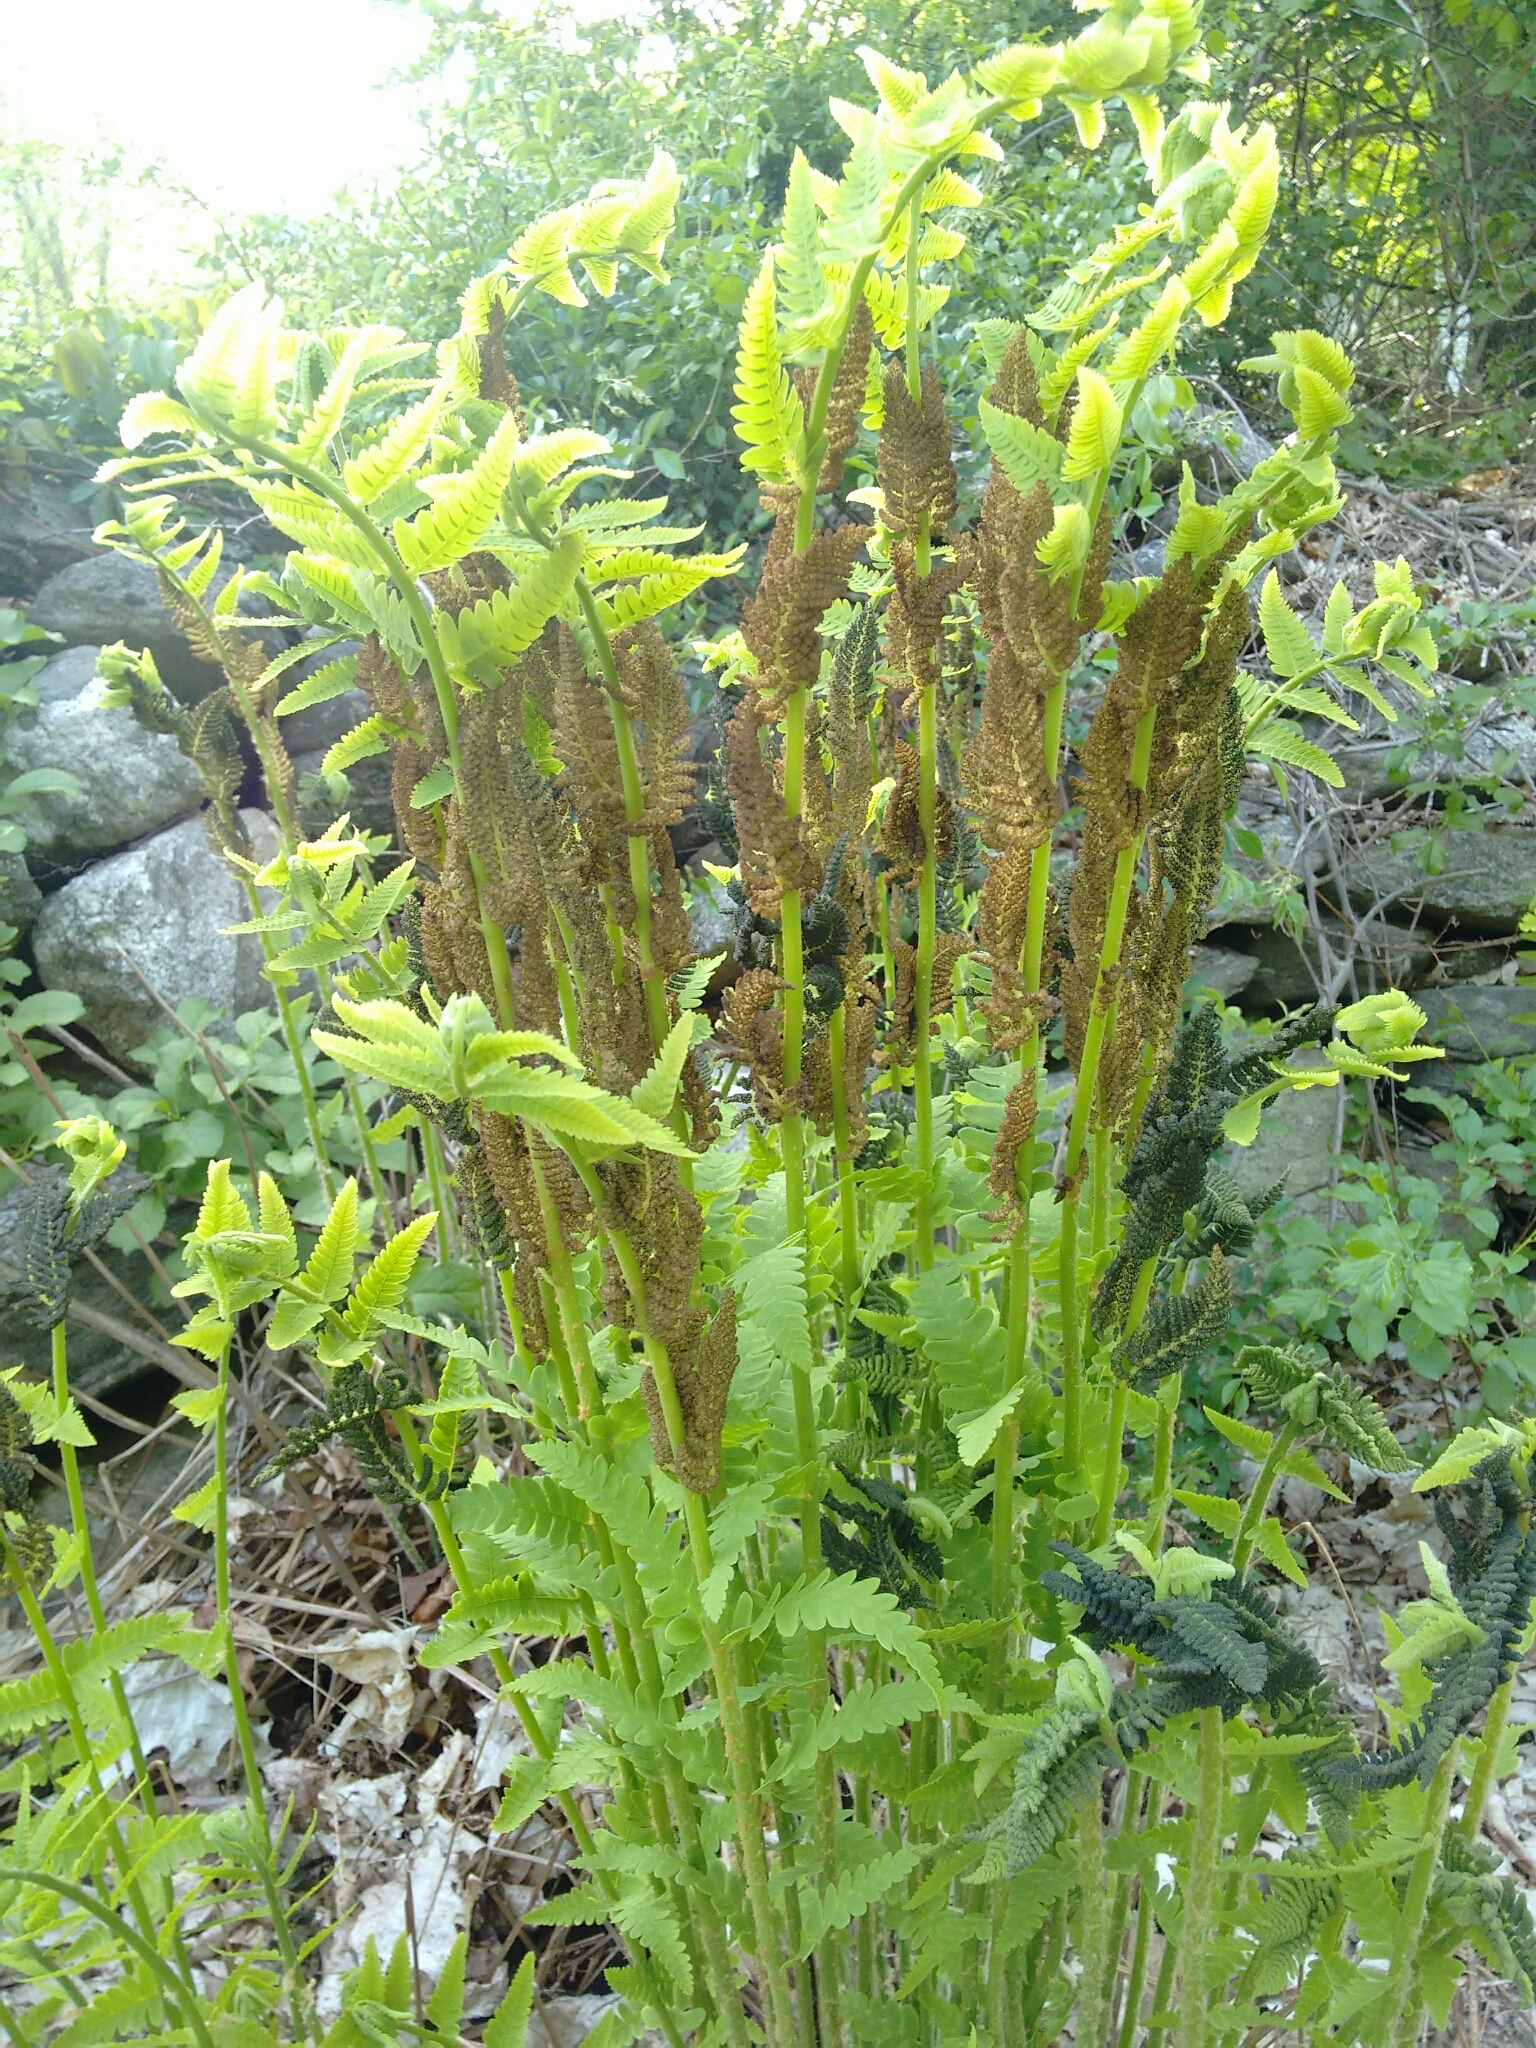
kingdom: Plantae
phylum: Tracheophyta
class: Polypodiopsida
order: Osmundales
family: Osmundaceae
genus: Claytosmunda
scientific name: Claytosmunda claytoniana
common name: Clayton's fern
